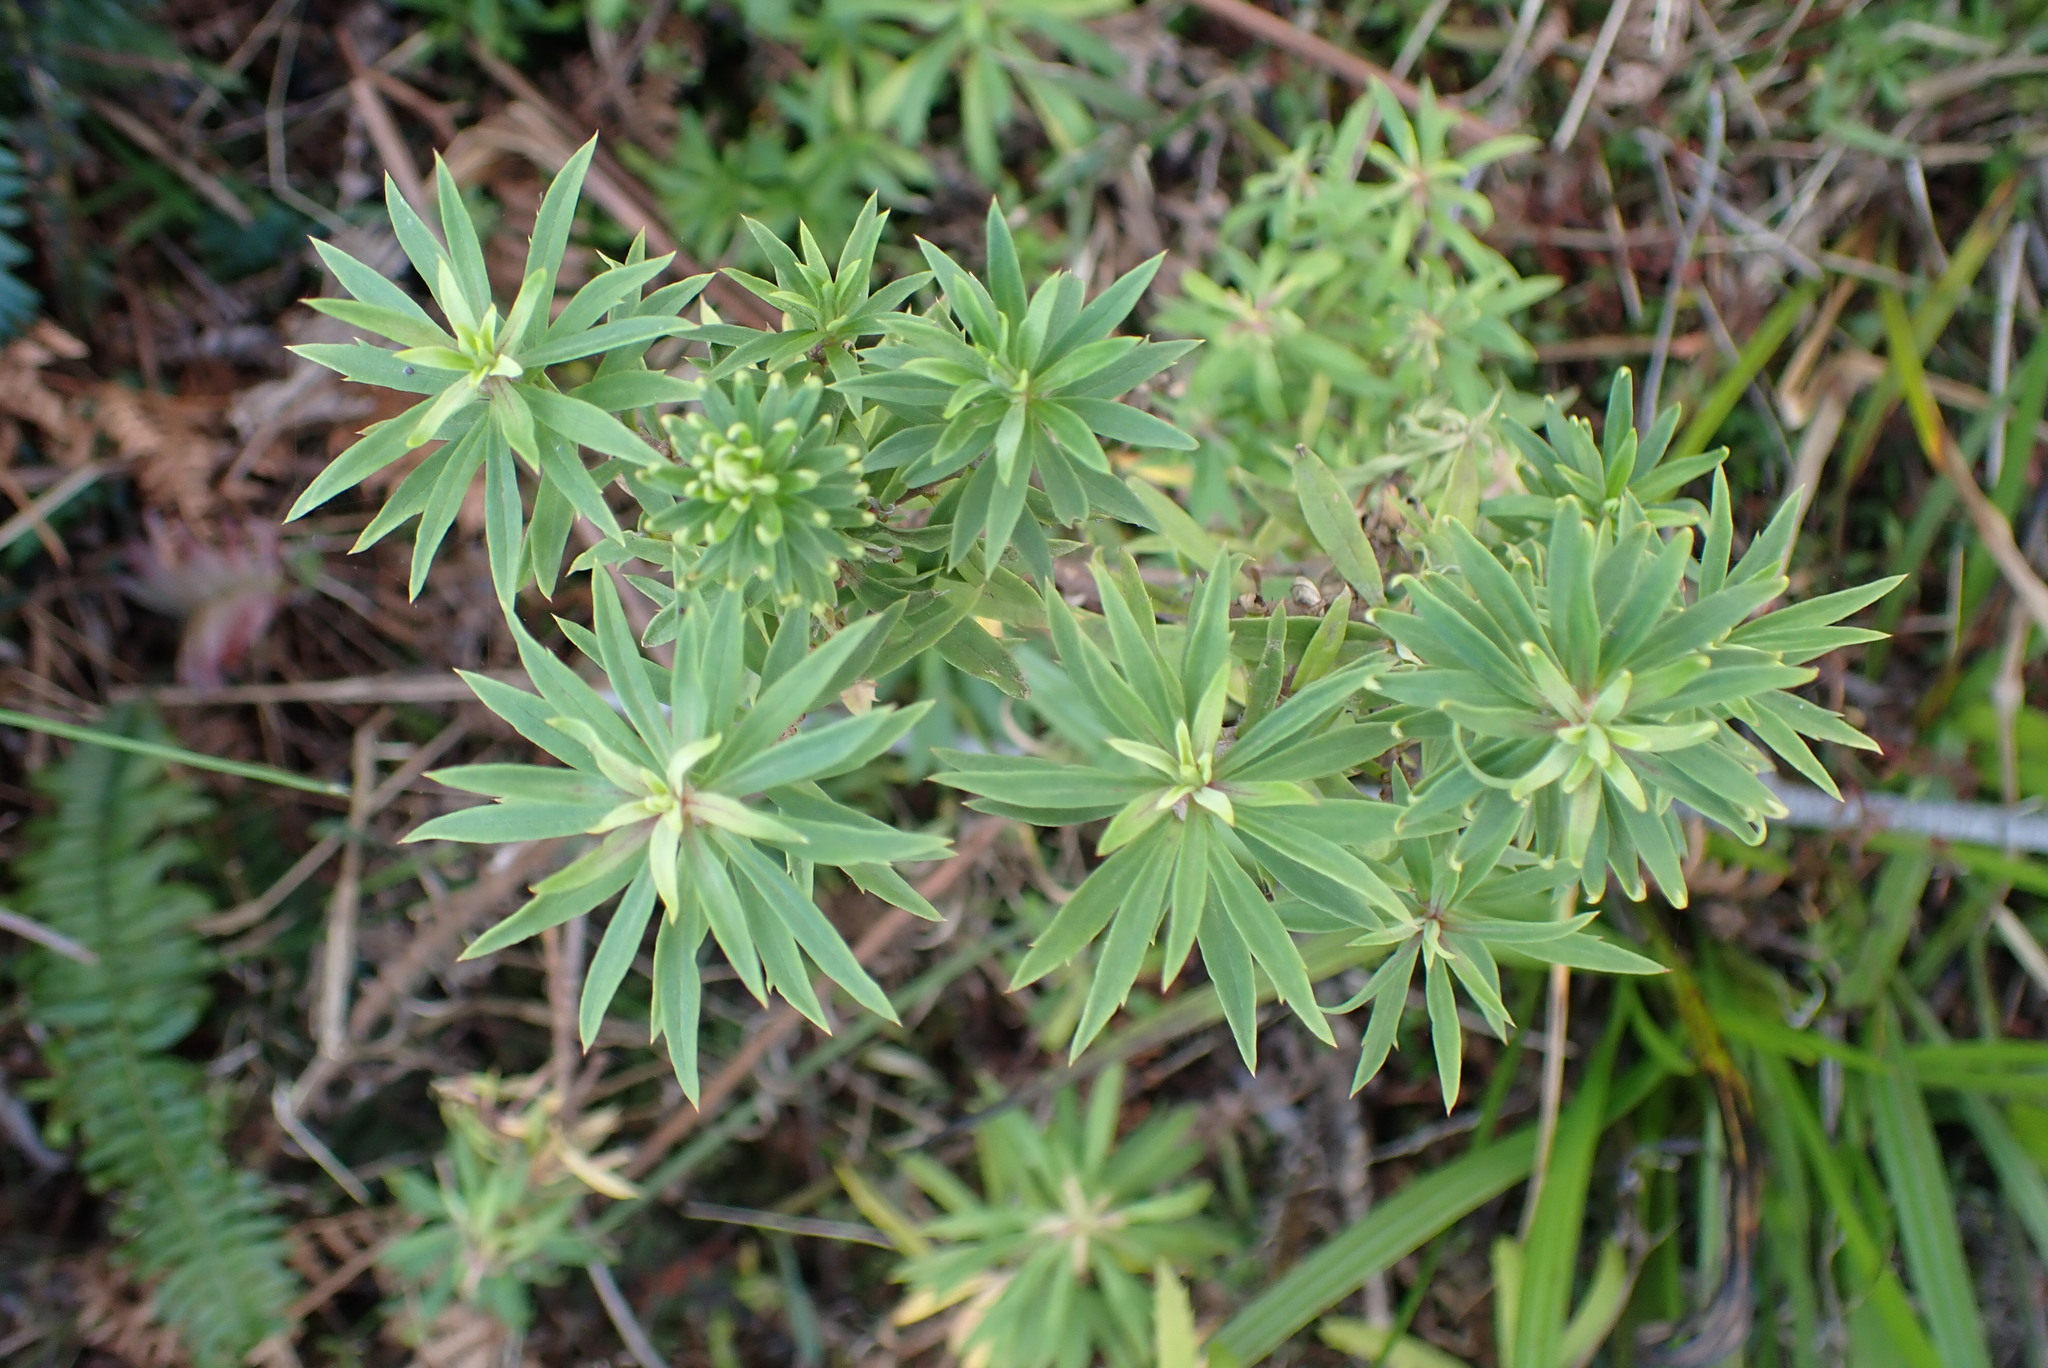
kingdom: Plantae
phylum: Tracheophyta
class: Magnoliopsida
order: Asterales
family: Asteraceae
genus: Osmitopsis
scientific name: Osmitopsis osmitoides
